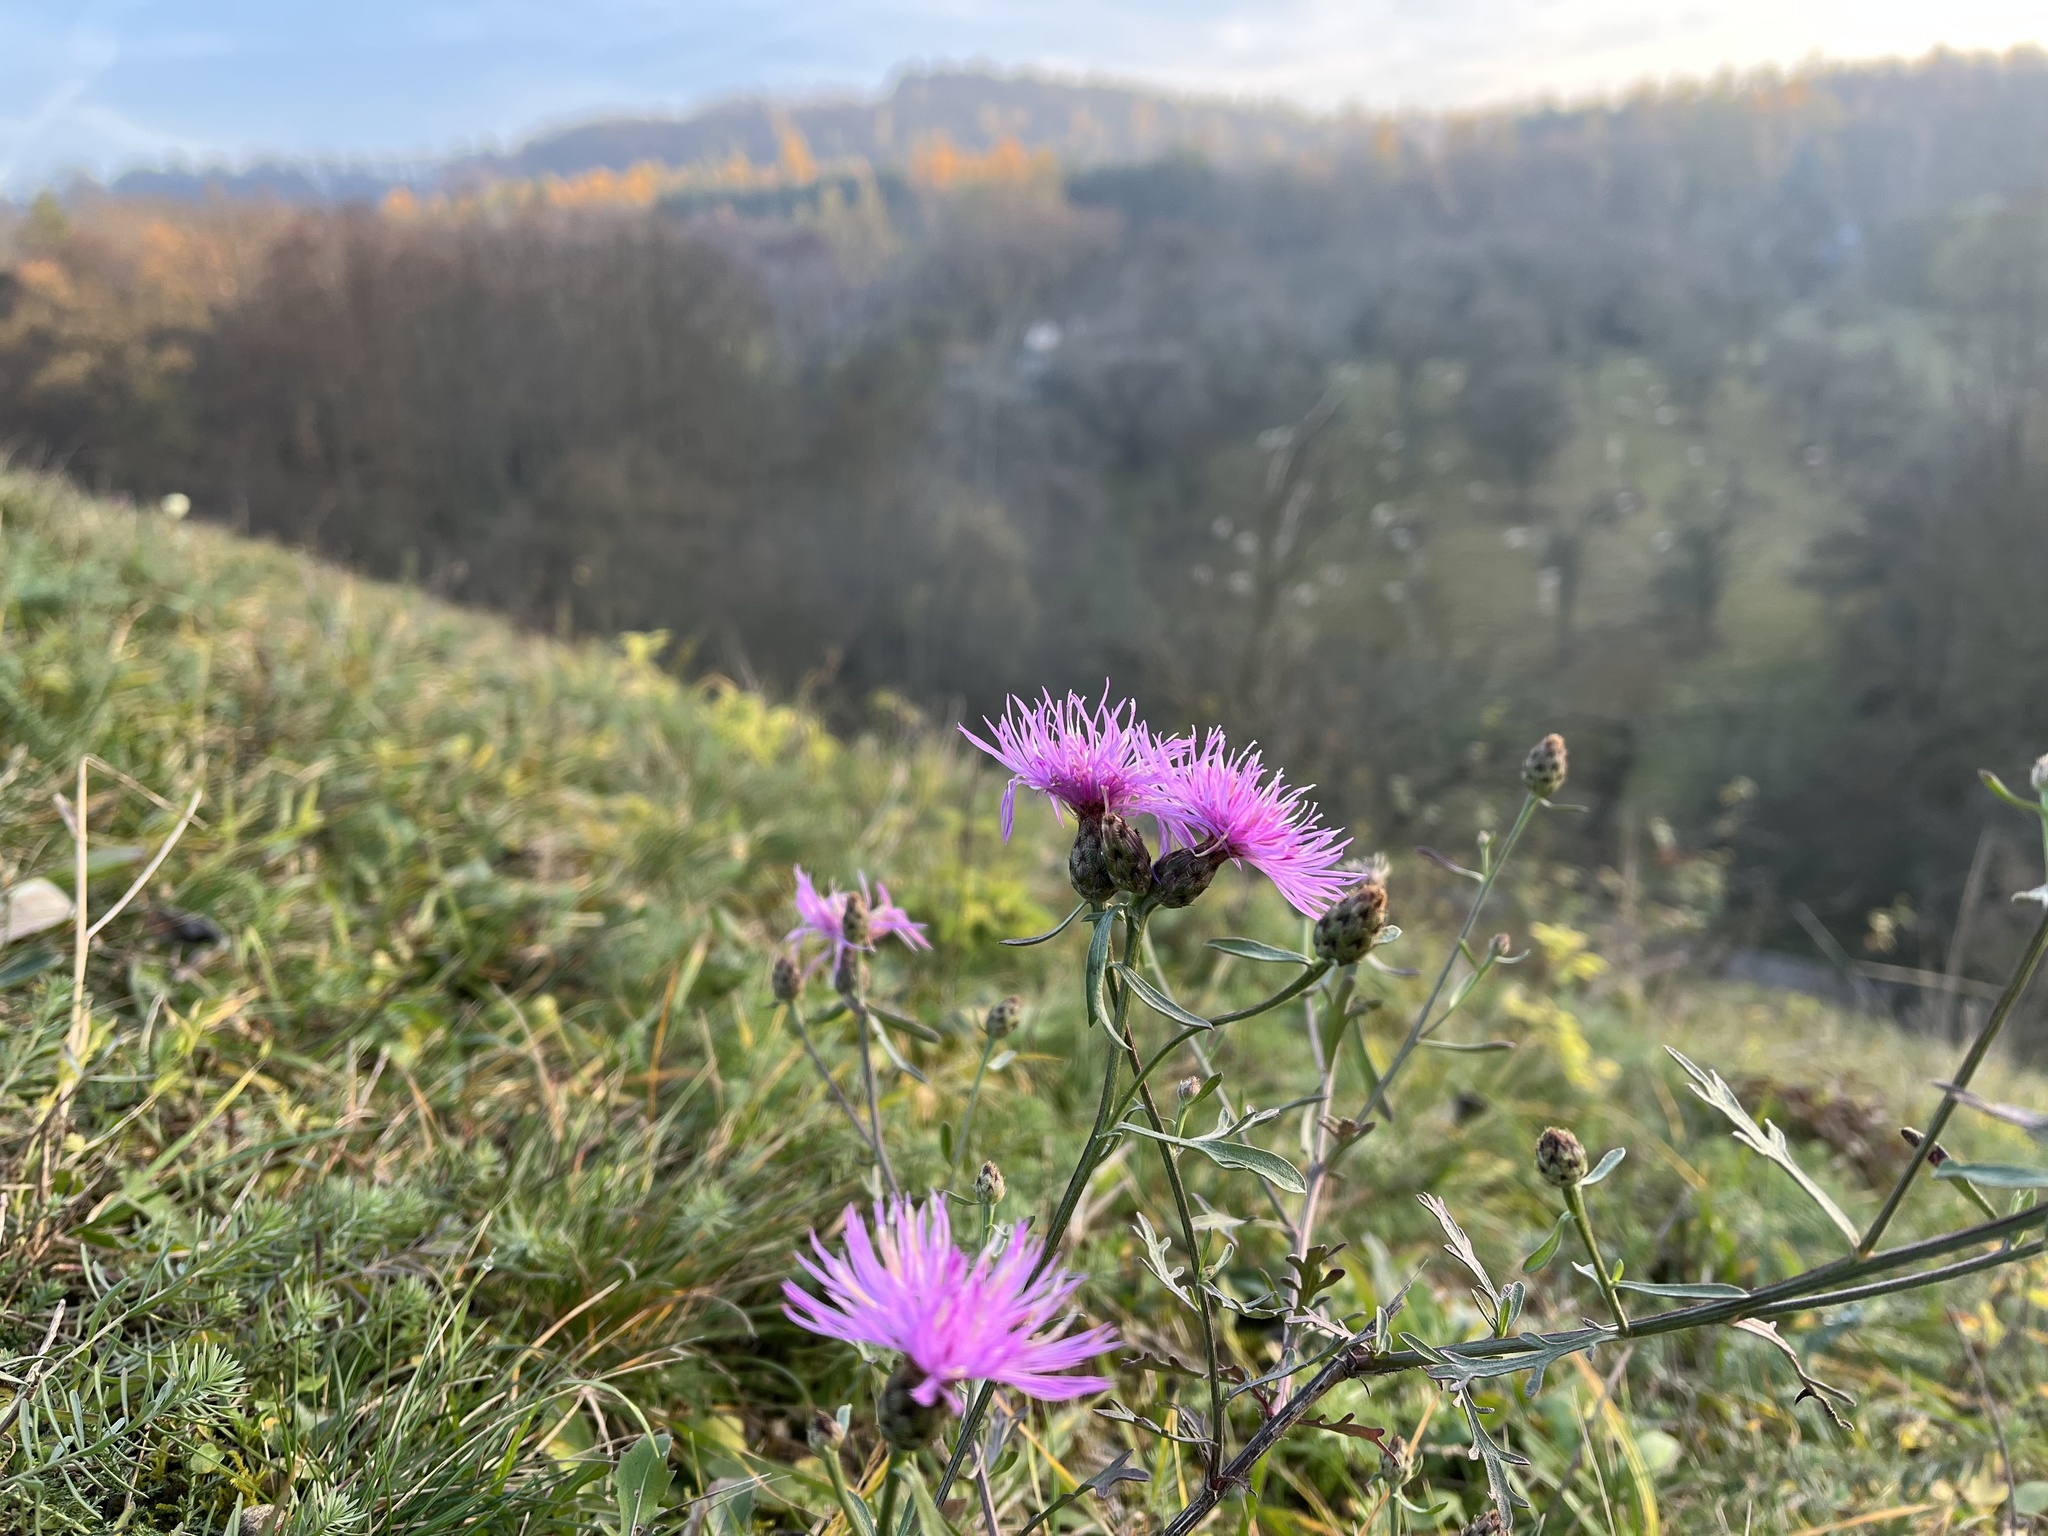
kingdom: Plantae
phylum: Tracheophyta
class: Magnoliopsida
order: Asterales
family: Asteraceae
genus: Centaurea
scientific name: Centaurea stoebe
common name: Spotted knapweed
